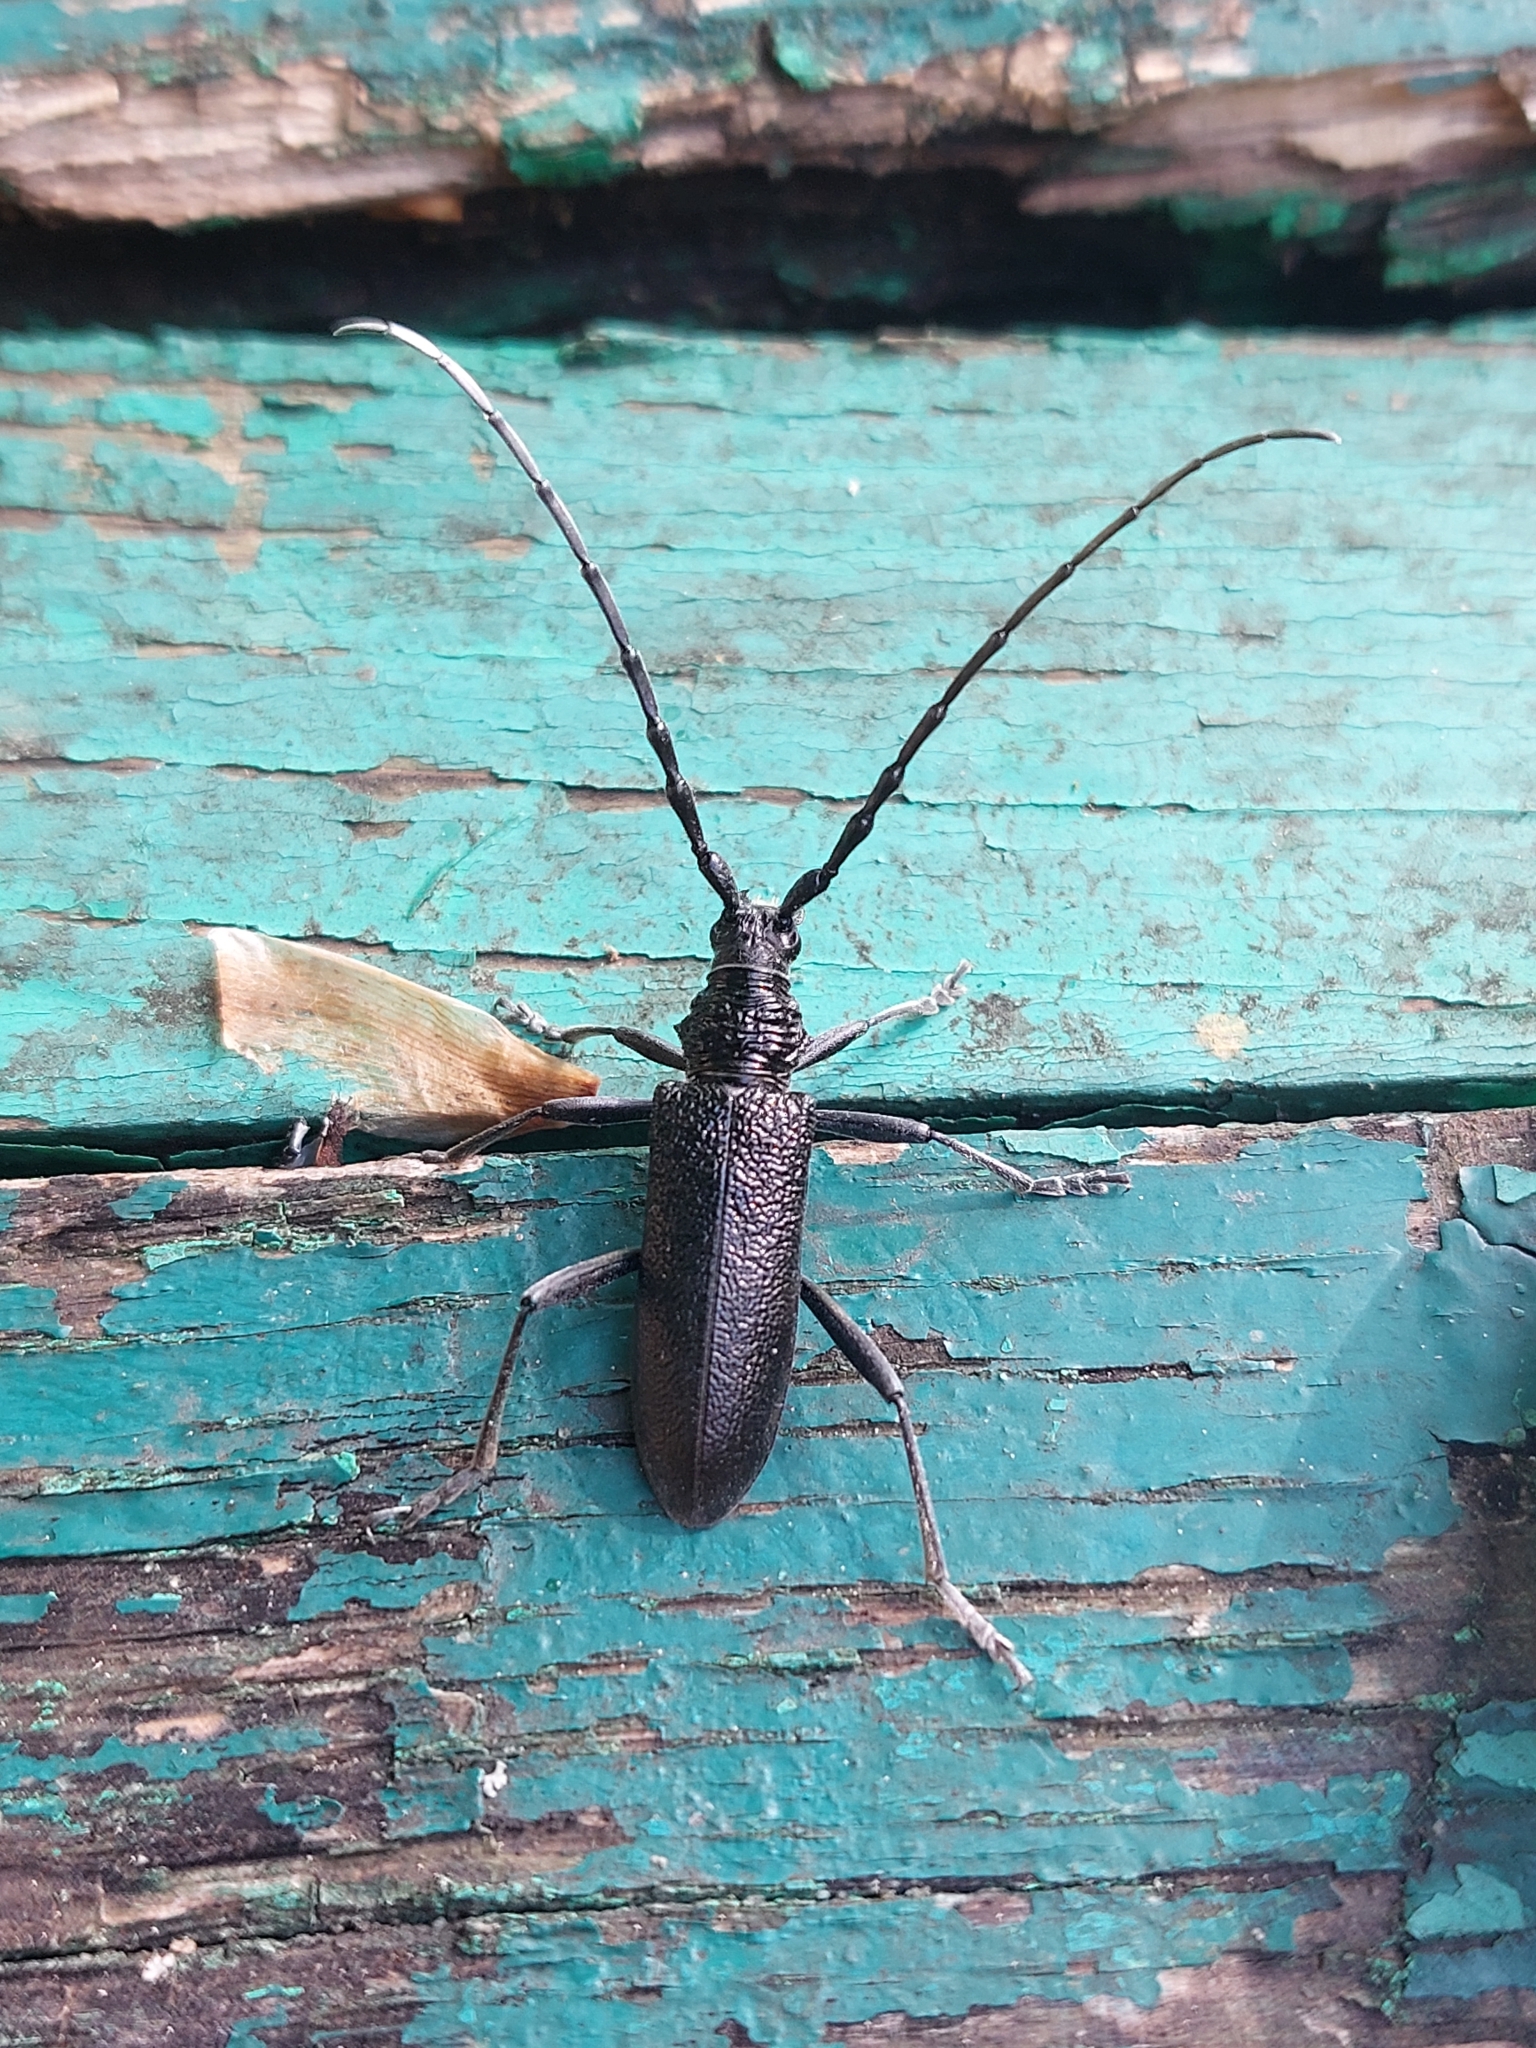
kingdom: Animalia
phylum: Arthropoda
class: Insecta
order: Coleoptera
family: Cerambycidae
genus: Cerambyx
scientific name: Cerambyx scopolii
